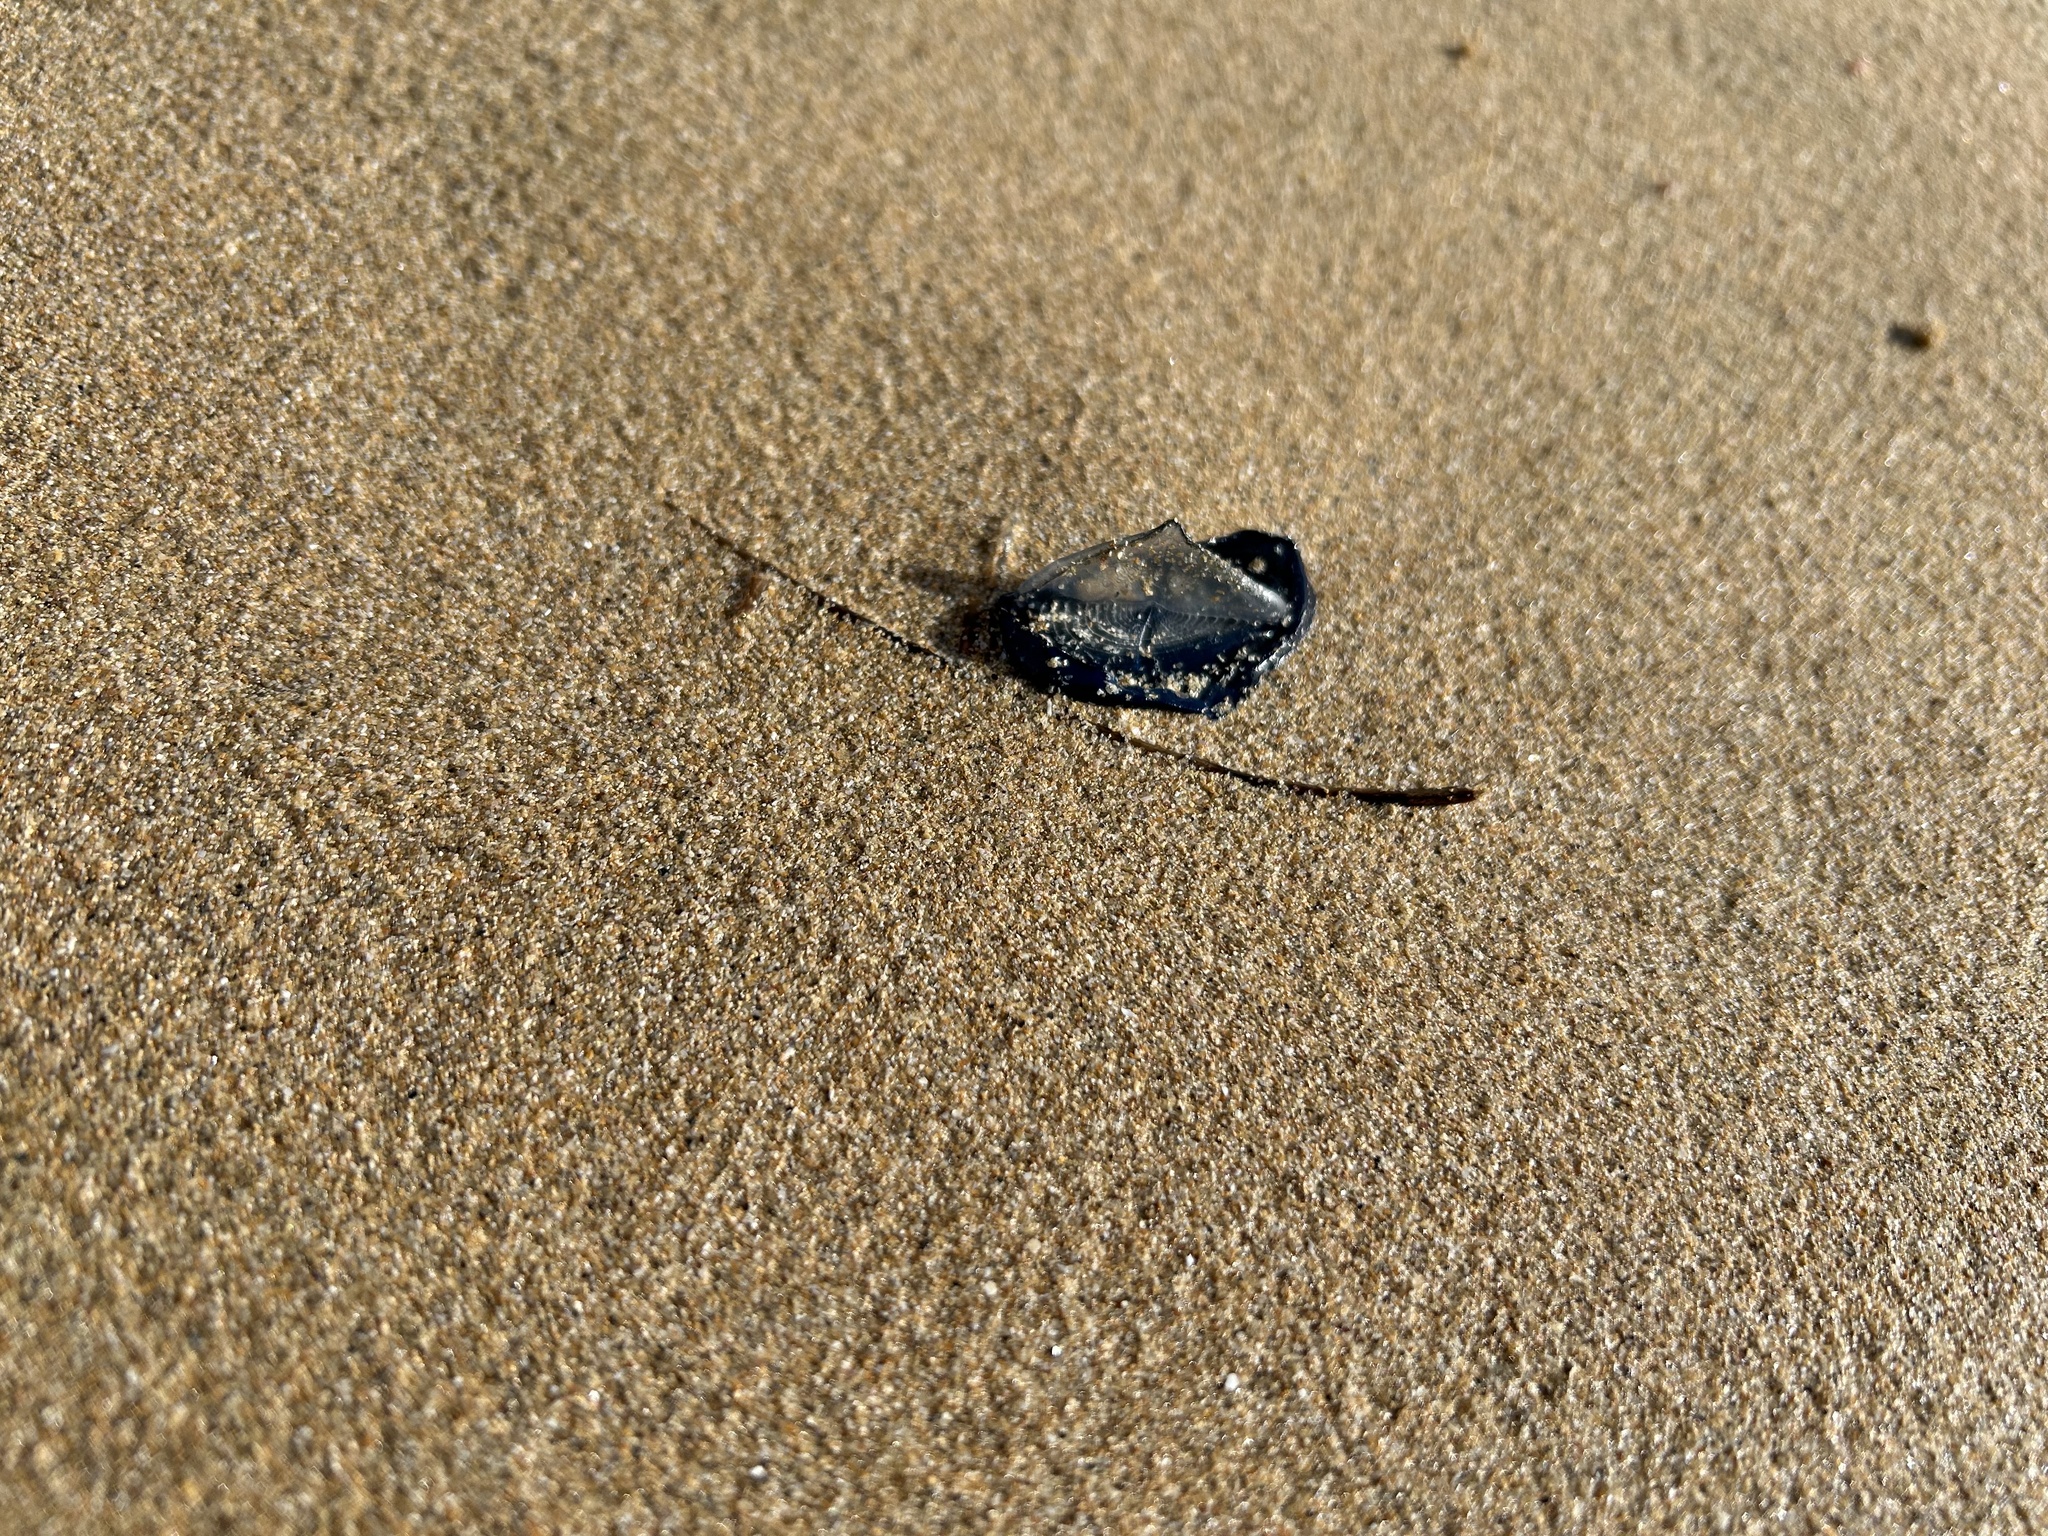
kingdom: Animalia
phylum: Cnidaria
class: Hydrozoa
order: Anthoathecata
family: Porpitidae
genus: Velella
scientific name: Velella velella
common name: By-the-wind-sailor
